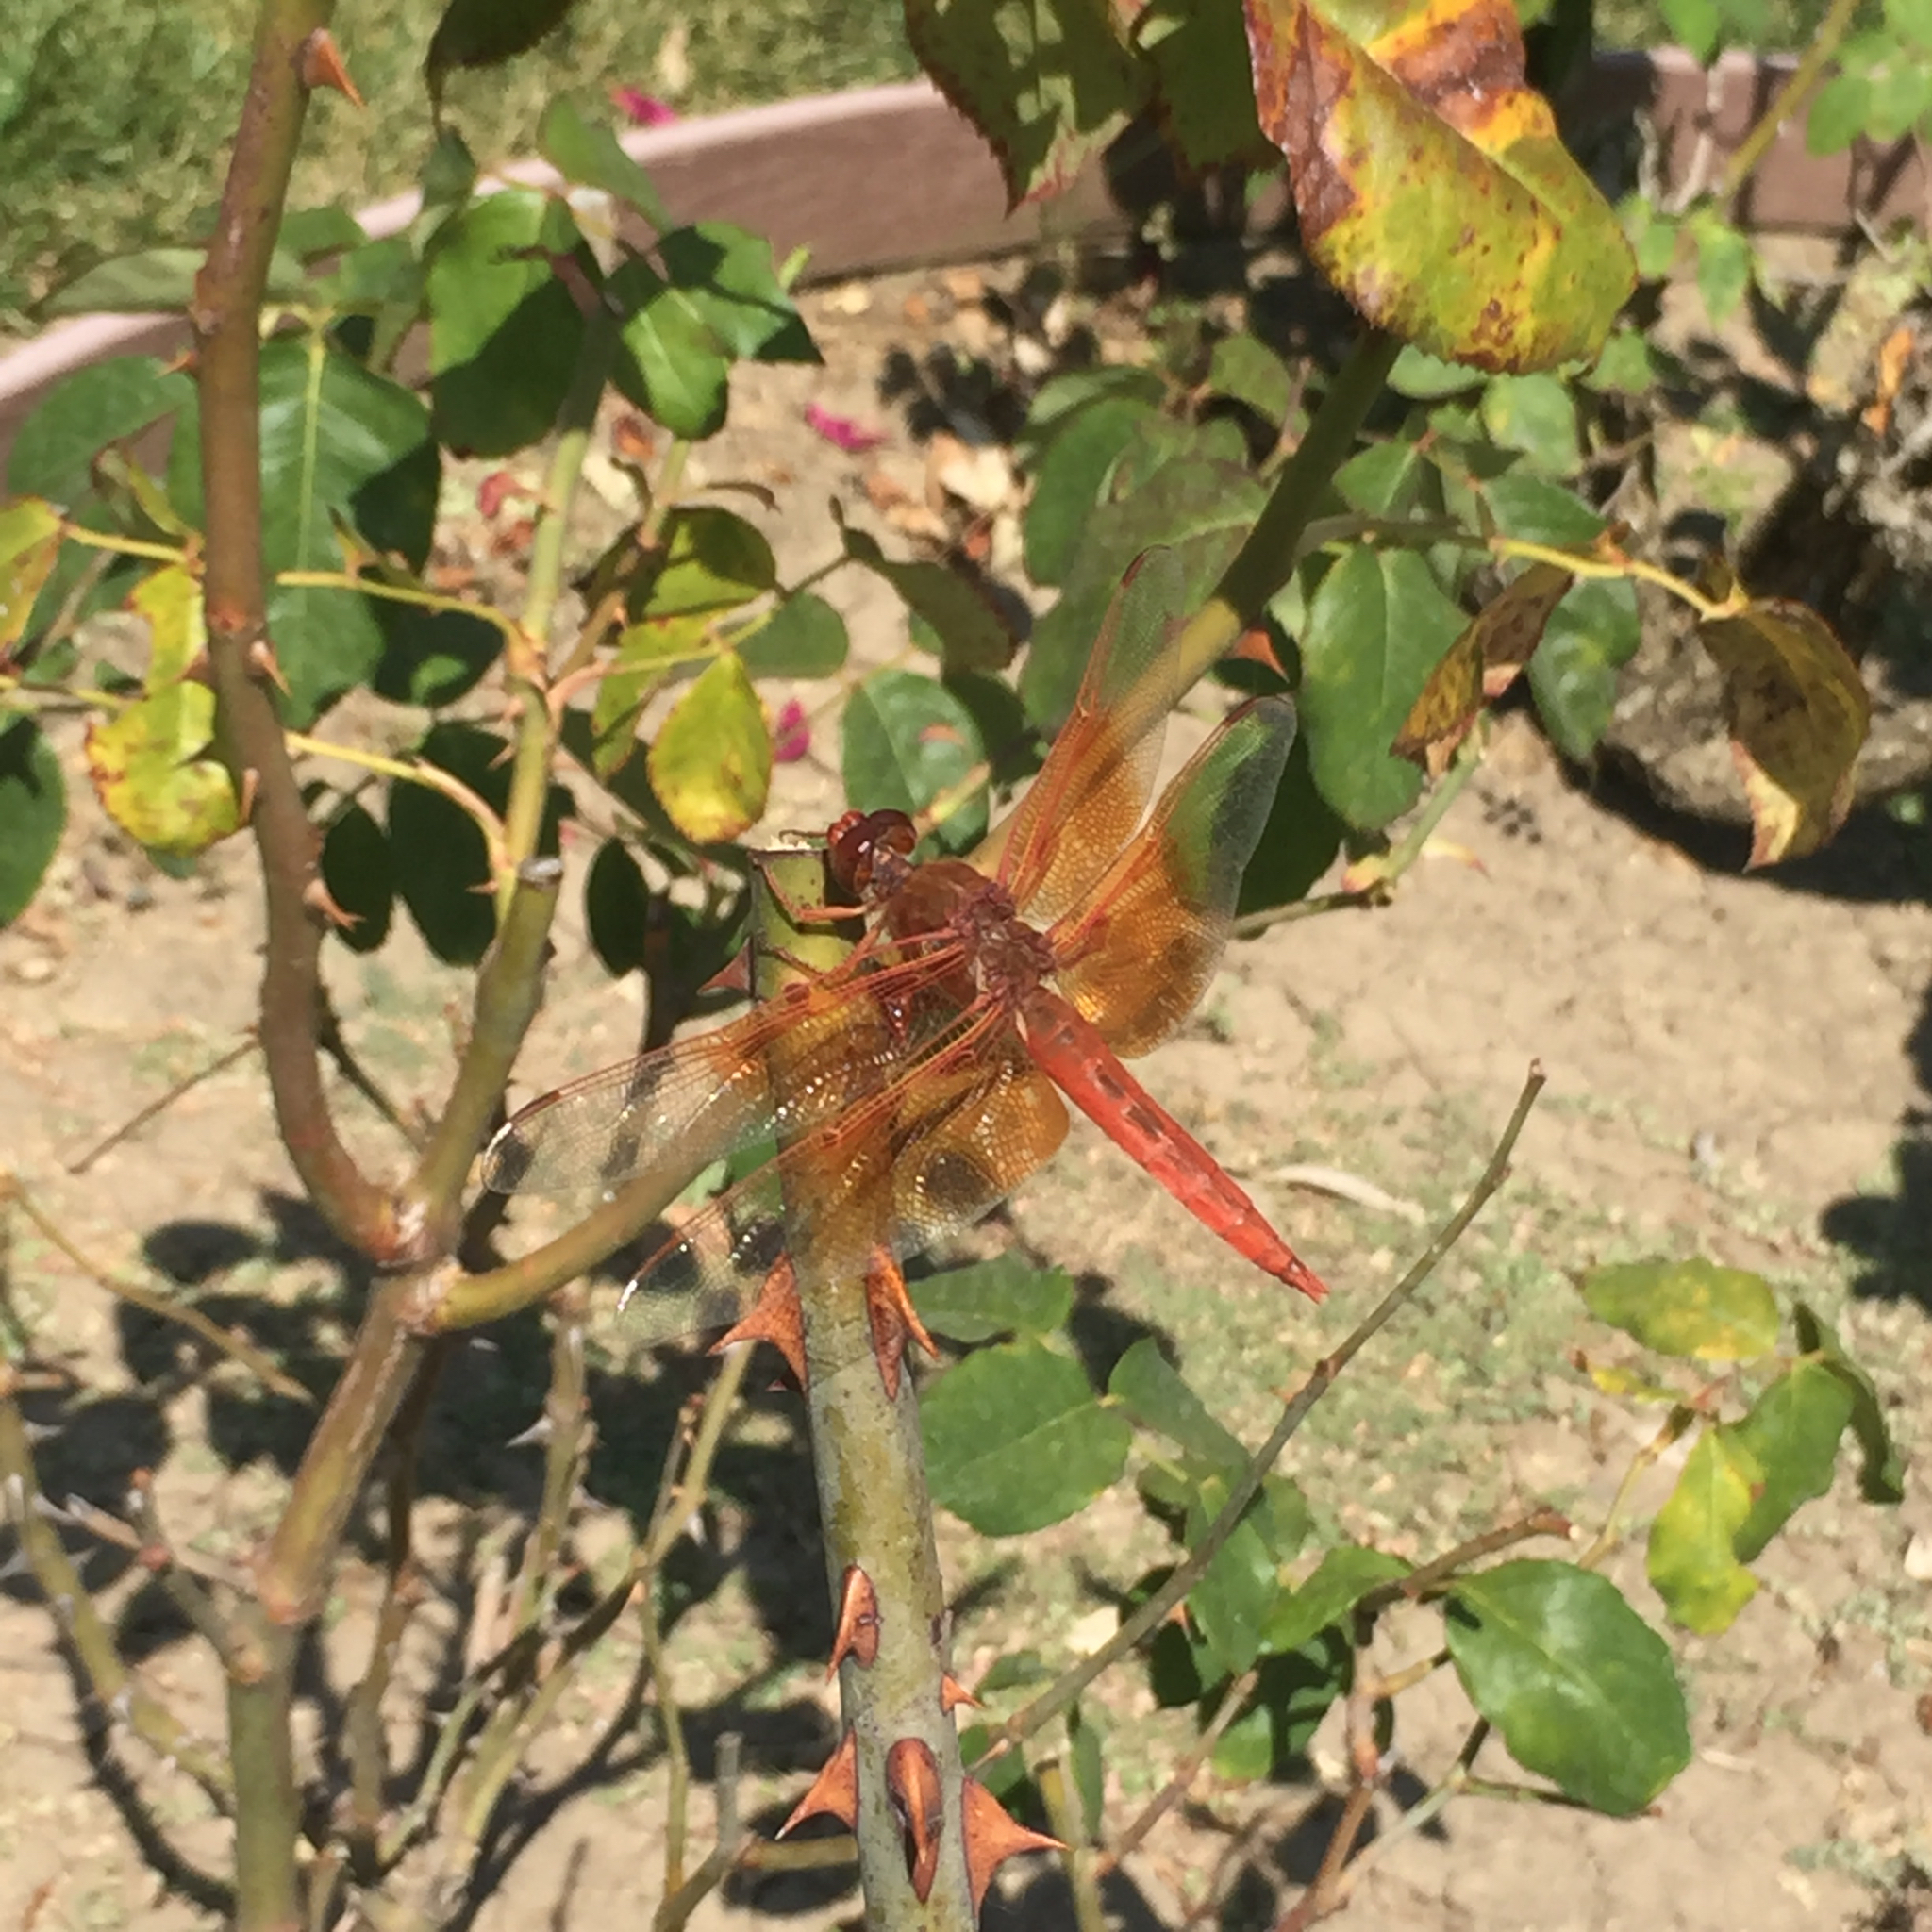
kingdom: Animalia
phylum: Arthropoda
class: Insecta
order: Odonata
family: Libellulidae
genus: Libellula
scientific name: Libellula saturata
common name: Flame skimmer
